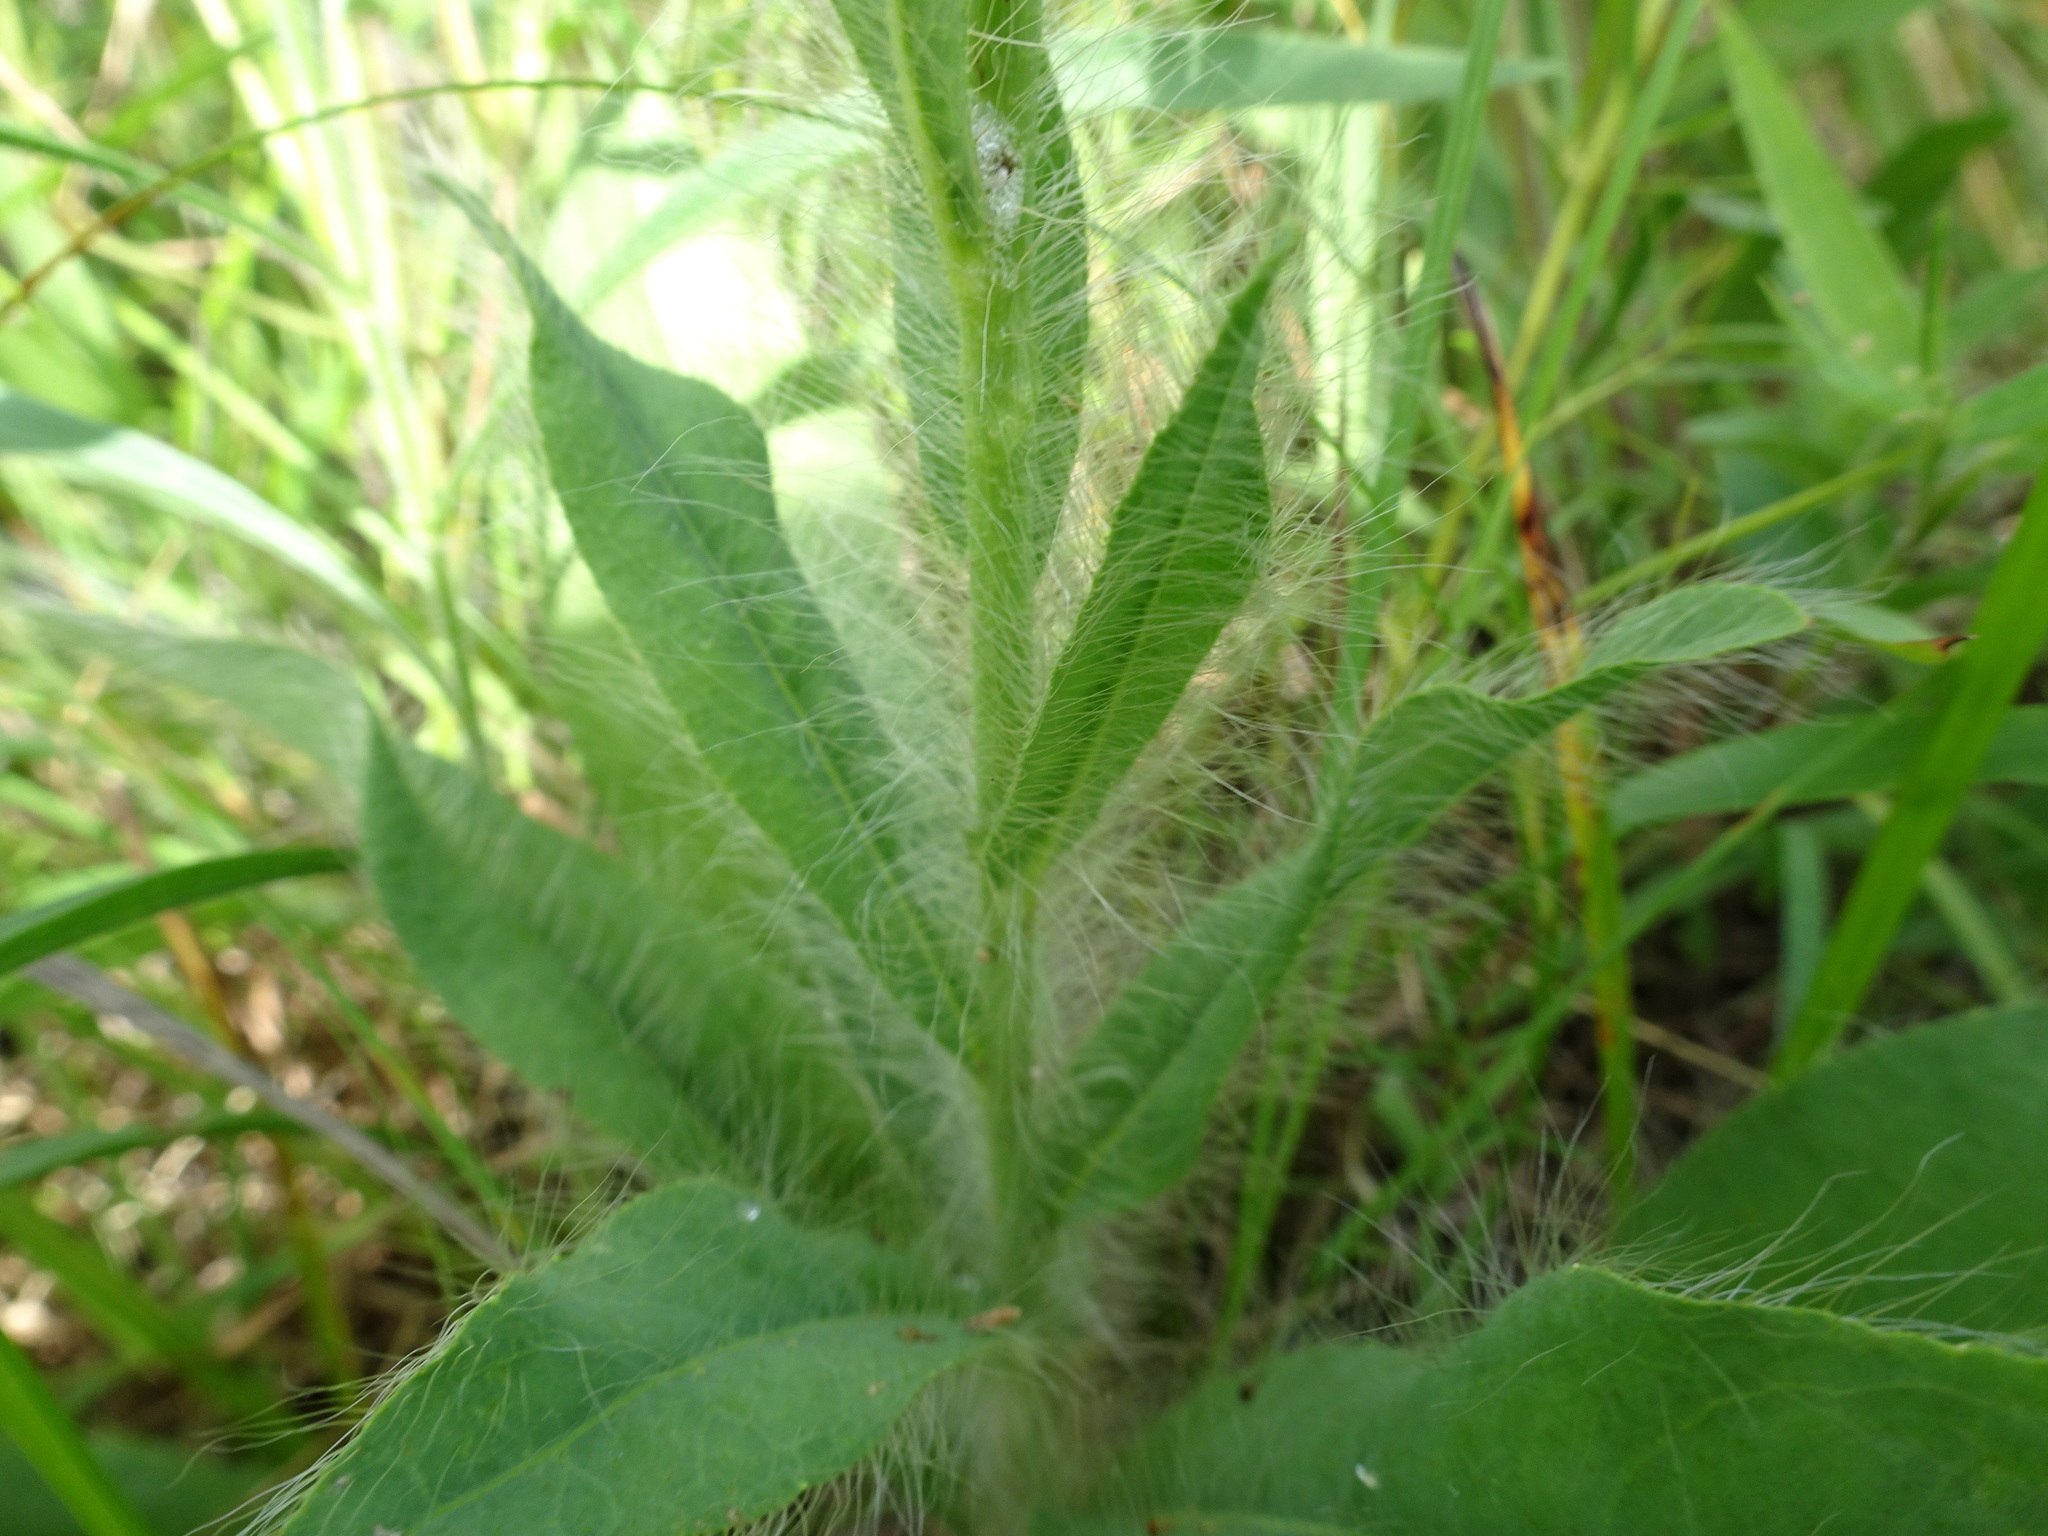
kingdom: Plantae
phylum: Tracheophyta
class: Magnoliopsida
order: Asterales
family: Asteraceae
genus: Hieracium
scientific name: Hieracium longipilum
